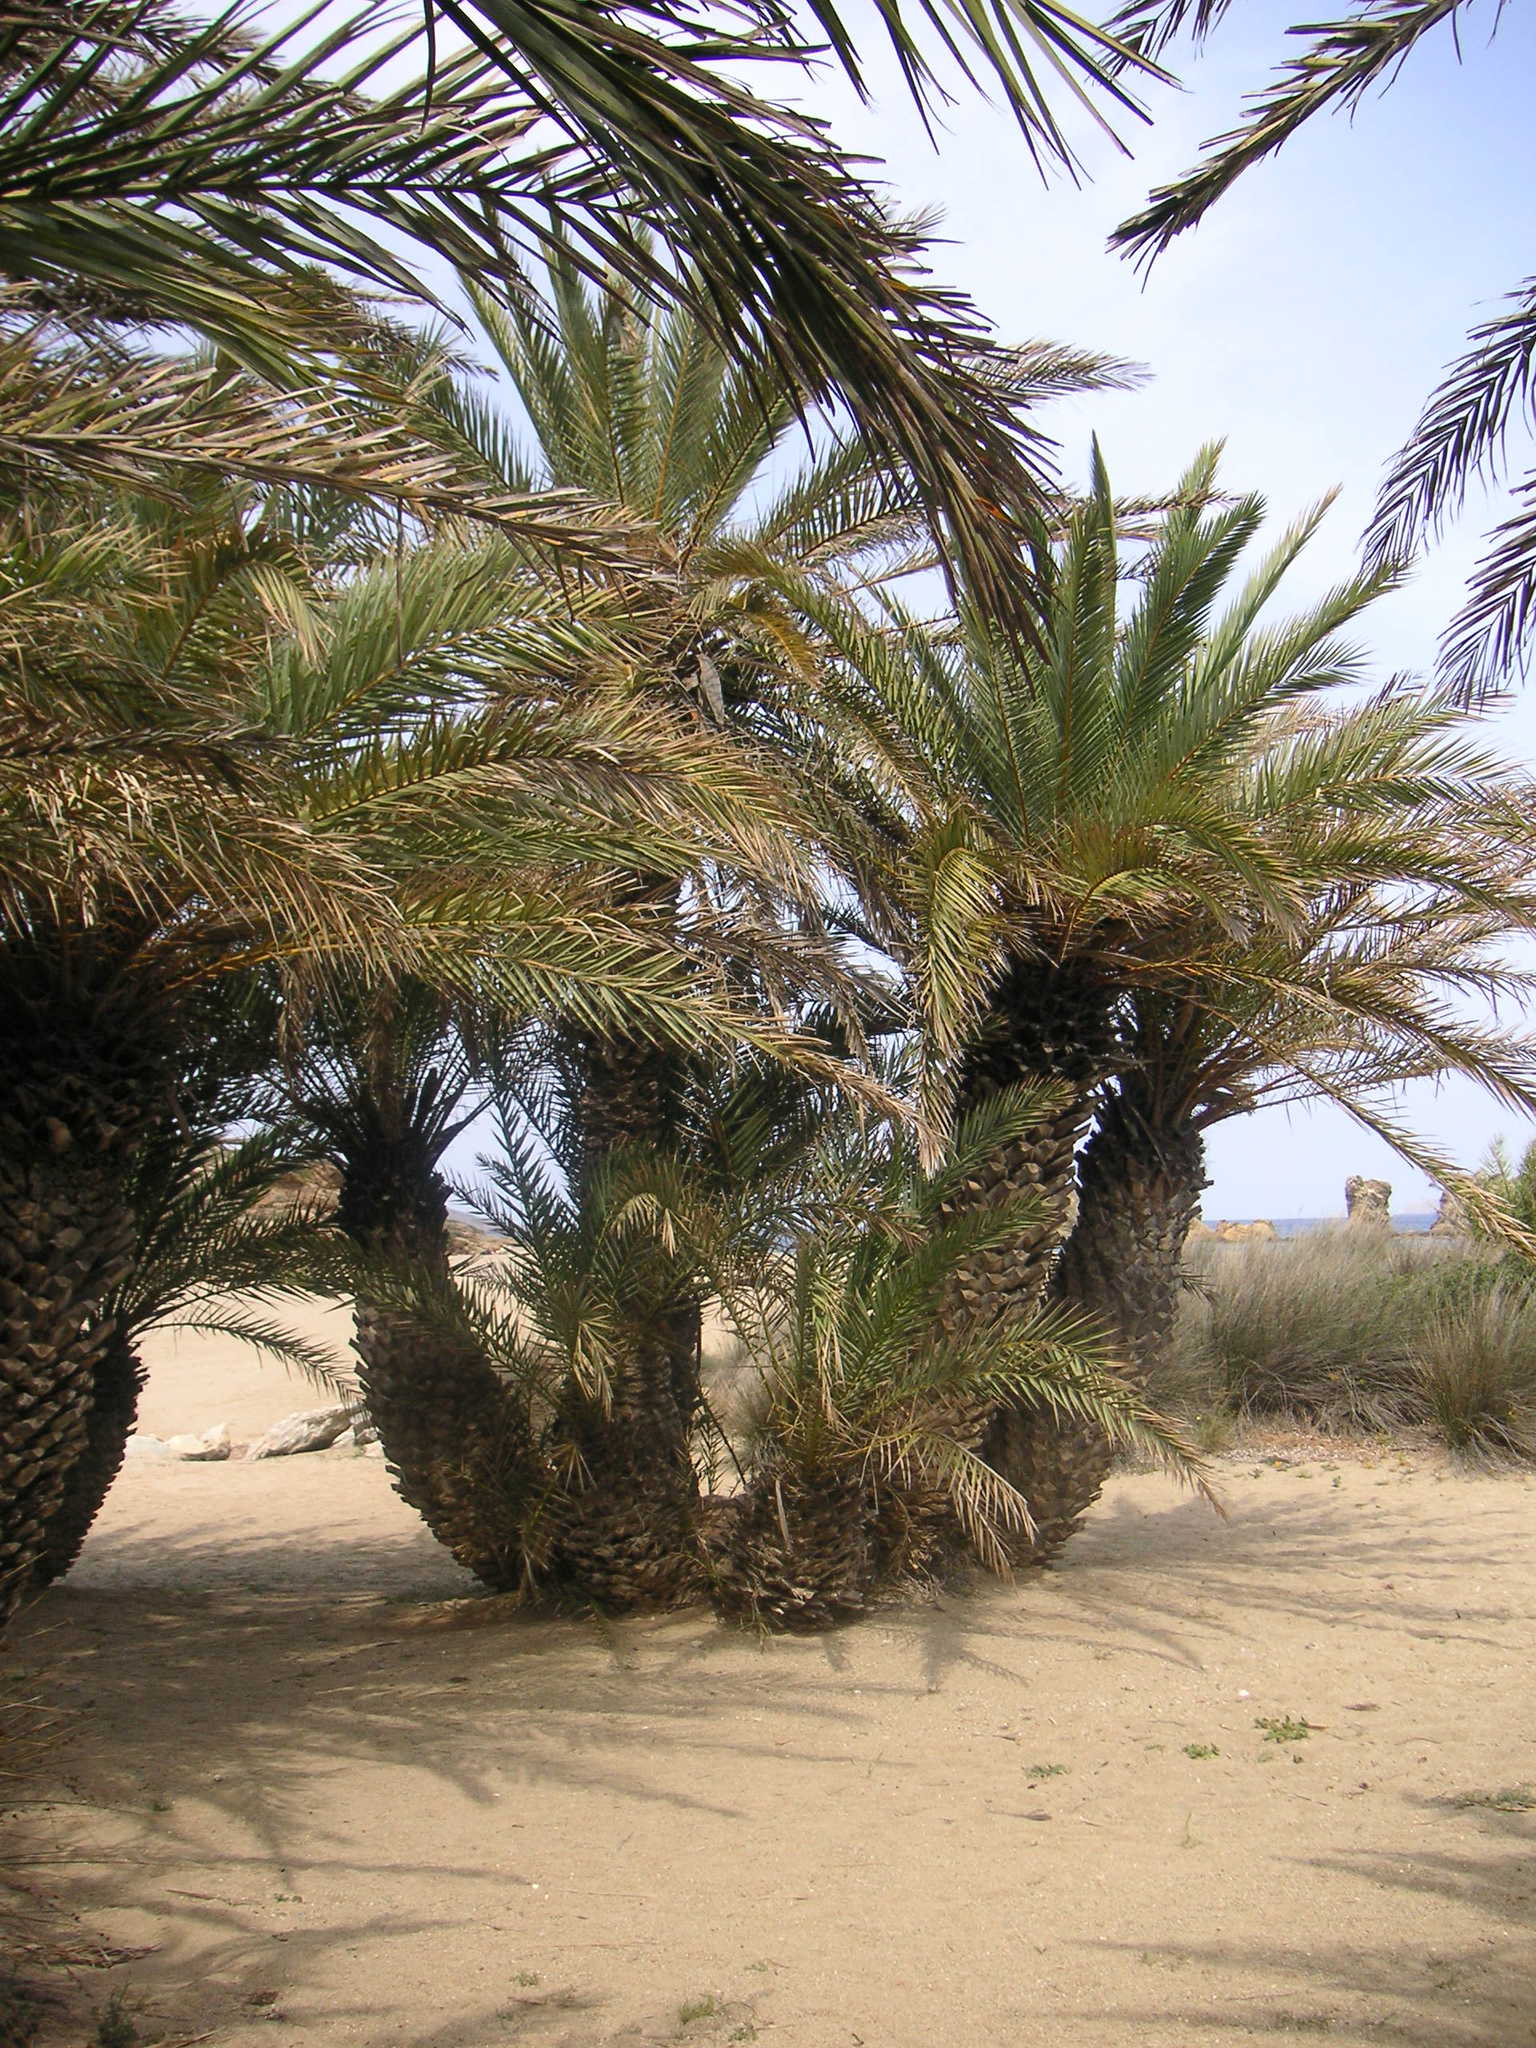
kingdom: Plantae
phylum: Tracheophyta
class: Liliopsida
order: Arecales
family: Arecaceae
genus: Phoenix
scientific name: Phoenix theophrasti
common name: Cretan date palm
